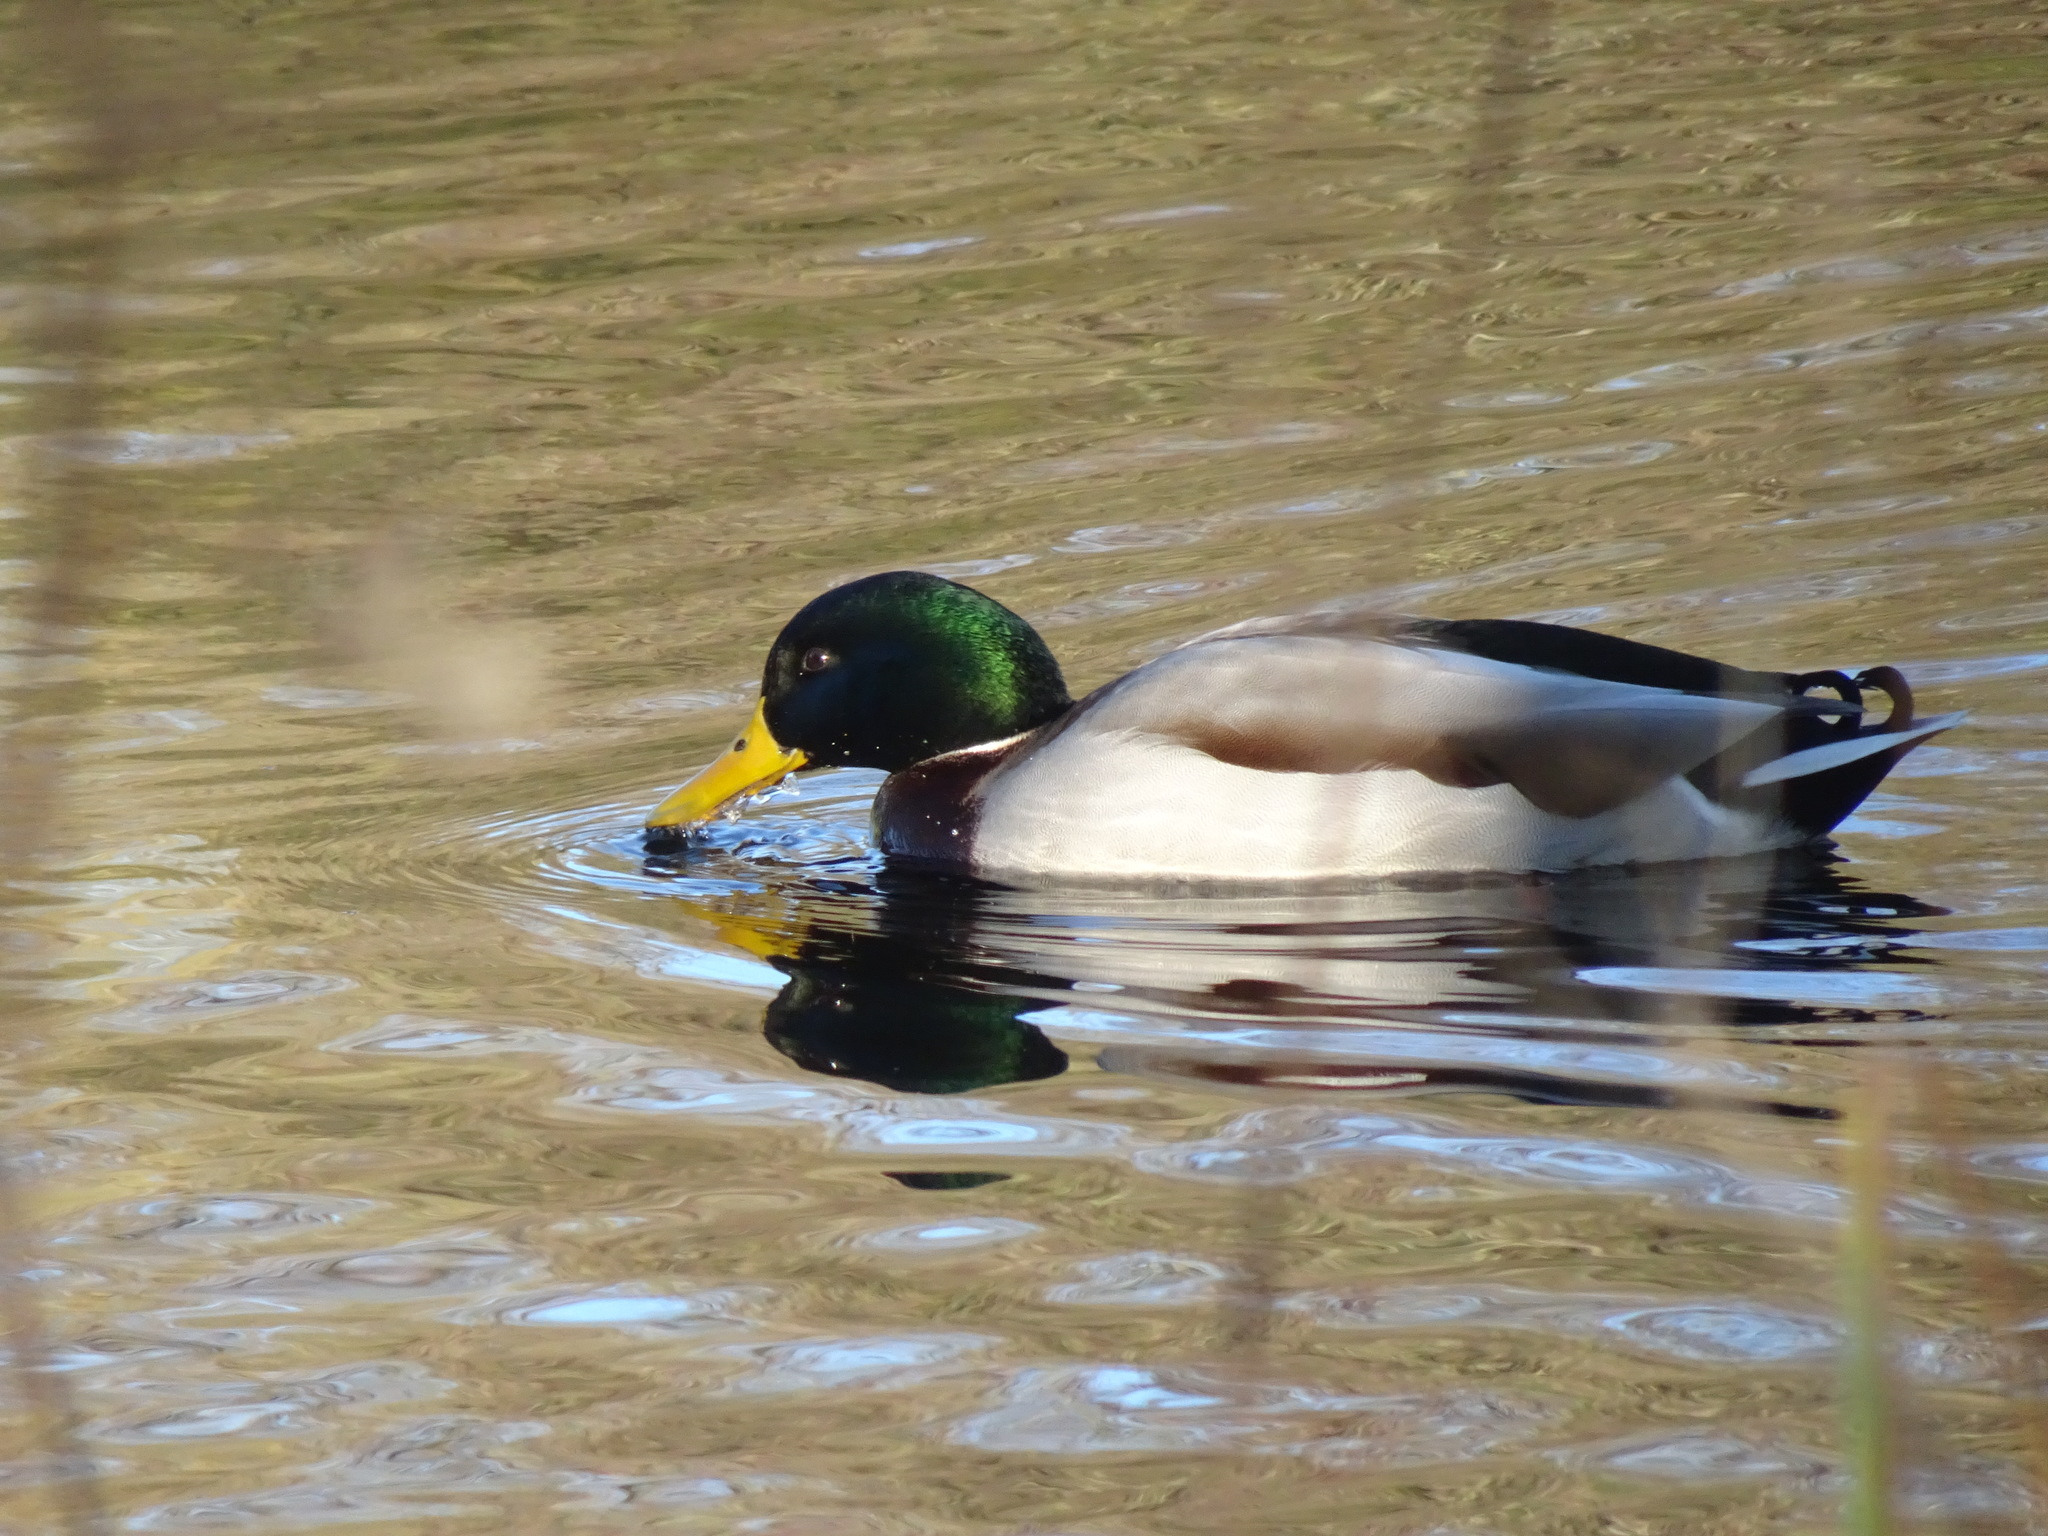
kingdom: Animalia
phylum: Chordata
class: Aves
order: Anseriformes
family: Anatidae
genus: Anas
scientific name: Anas platyrhynchos
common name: Mallard
